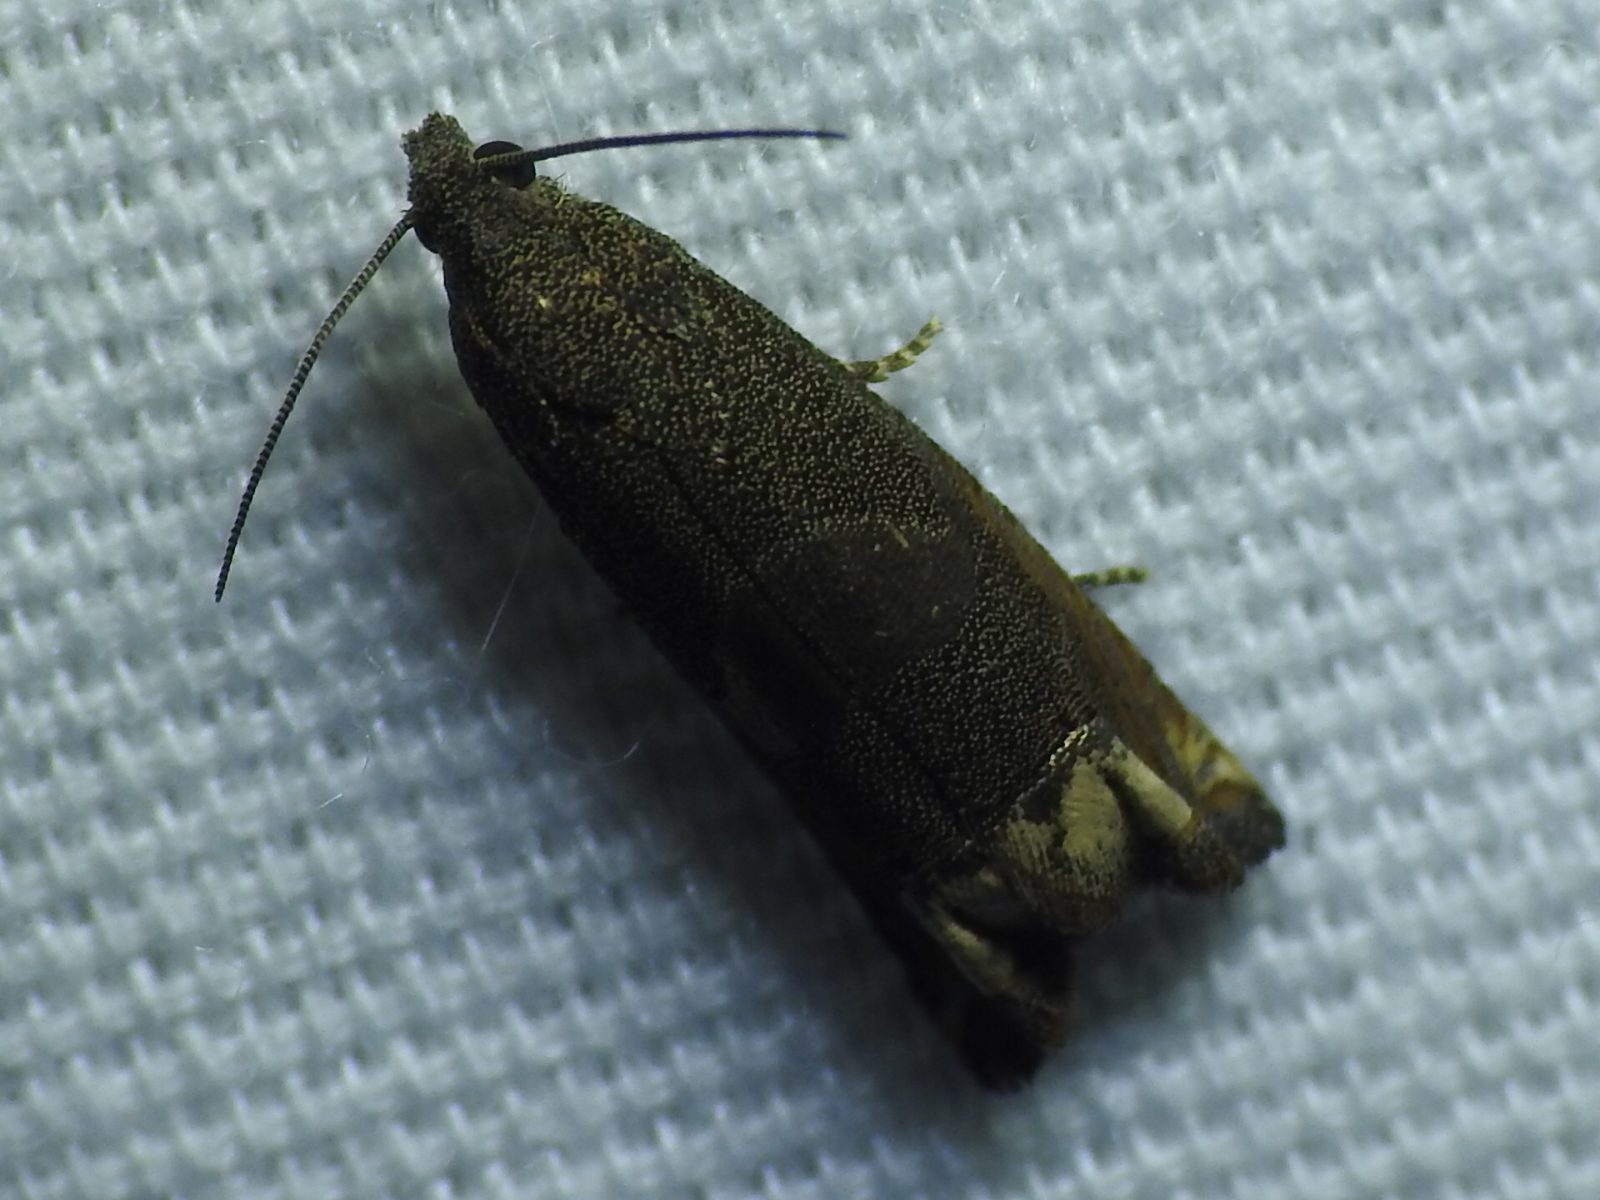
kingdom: Animalia
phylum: Arthropoda
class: Insecta
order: Lepidoptera
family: Tortricidae
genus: Epiblema
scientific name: Epiblema strenuana
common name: Ragweed borer moth
